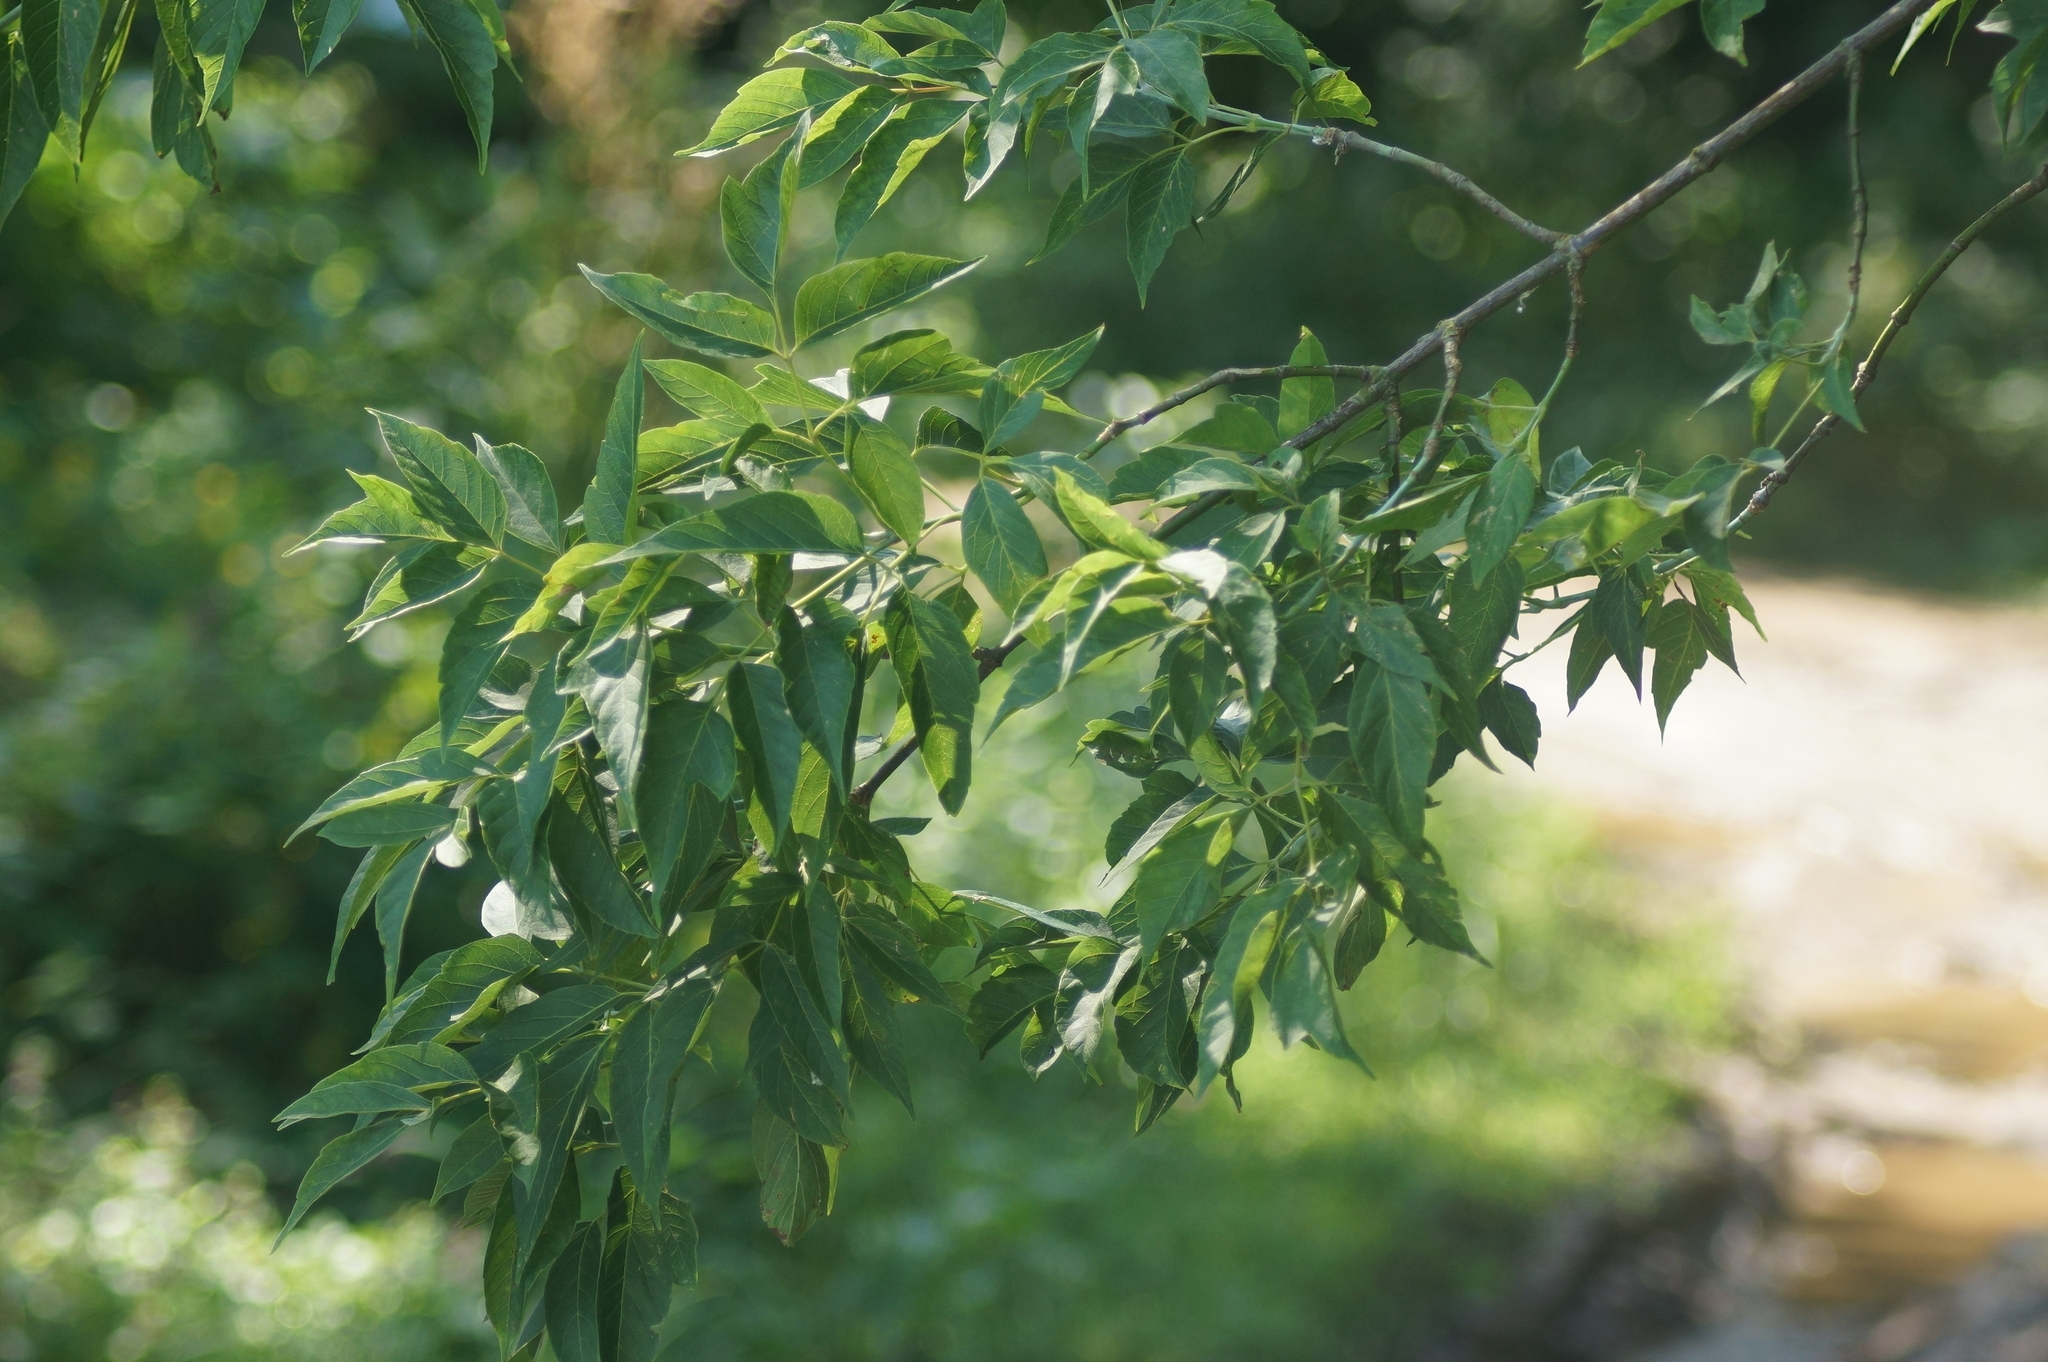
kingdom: Plantae
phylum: Tracheophyta
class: Magnoliopsida
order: Sapindales
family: Sapindaceae
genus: Acer
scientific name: Acer negundo
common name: Ashleaf maple
